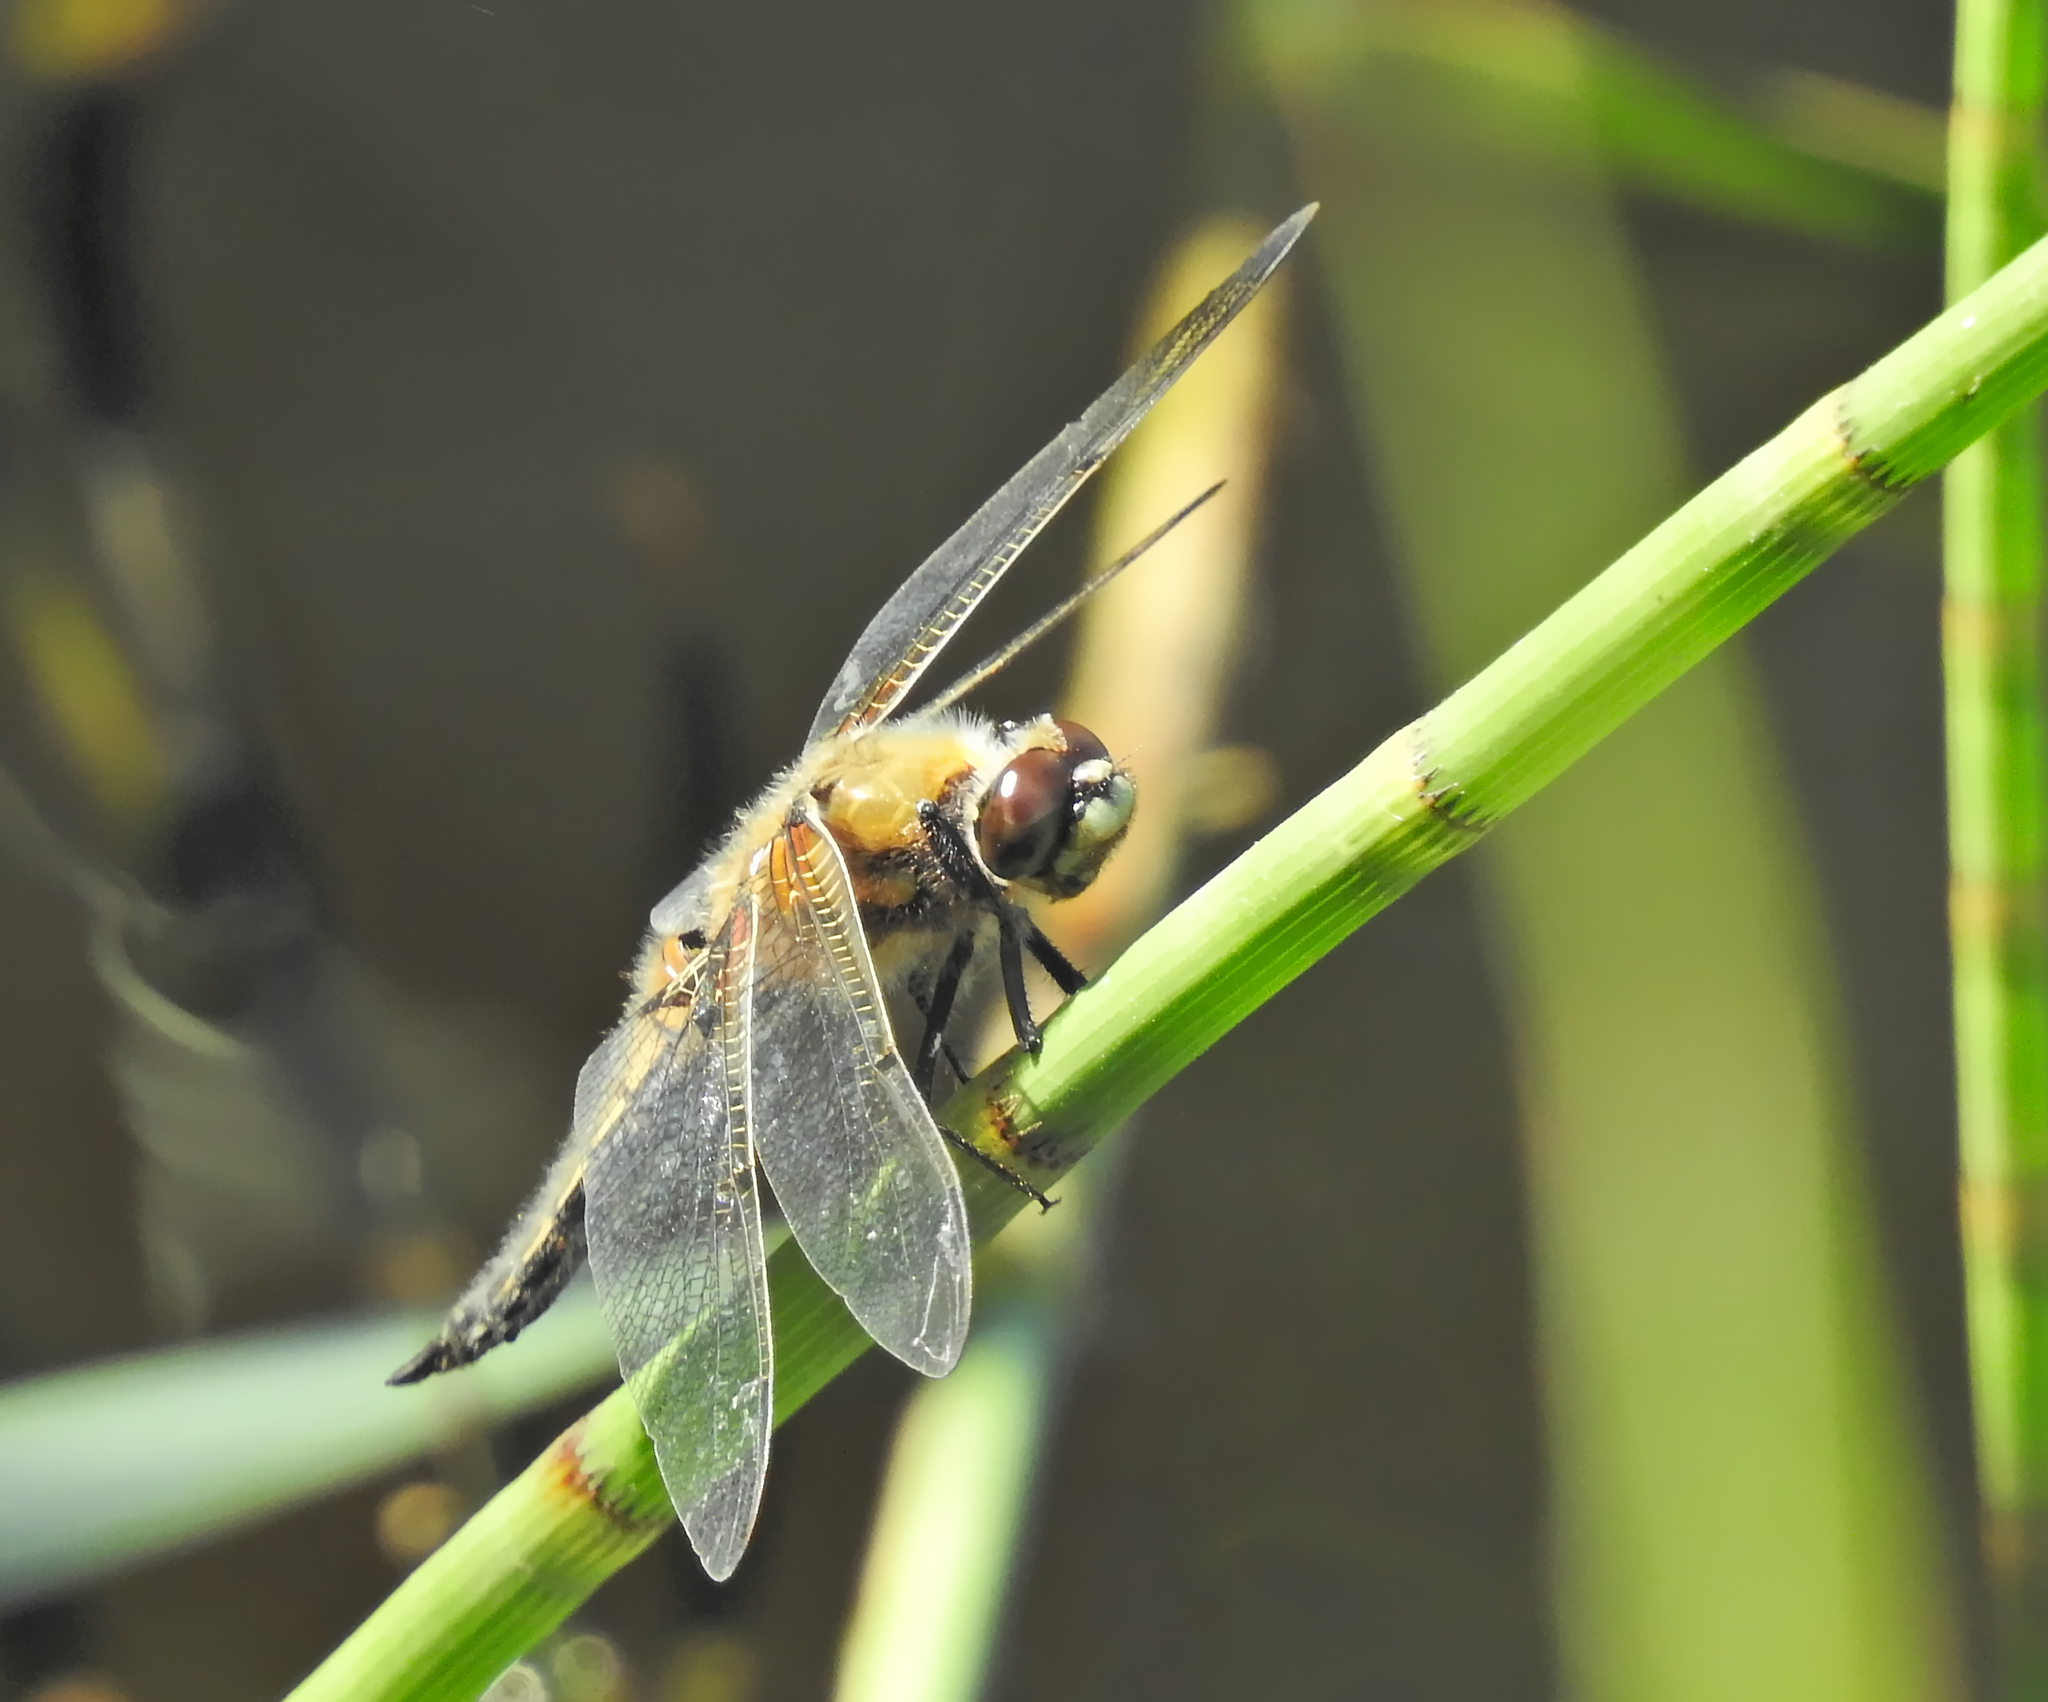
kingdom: Animalia
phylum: Arthropoda
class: Insecta
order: Odonata
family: Libellulidae
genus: Libellula
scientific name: Libellula quadrimaculata
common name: Four-spotted chaser
